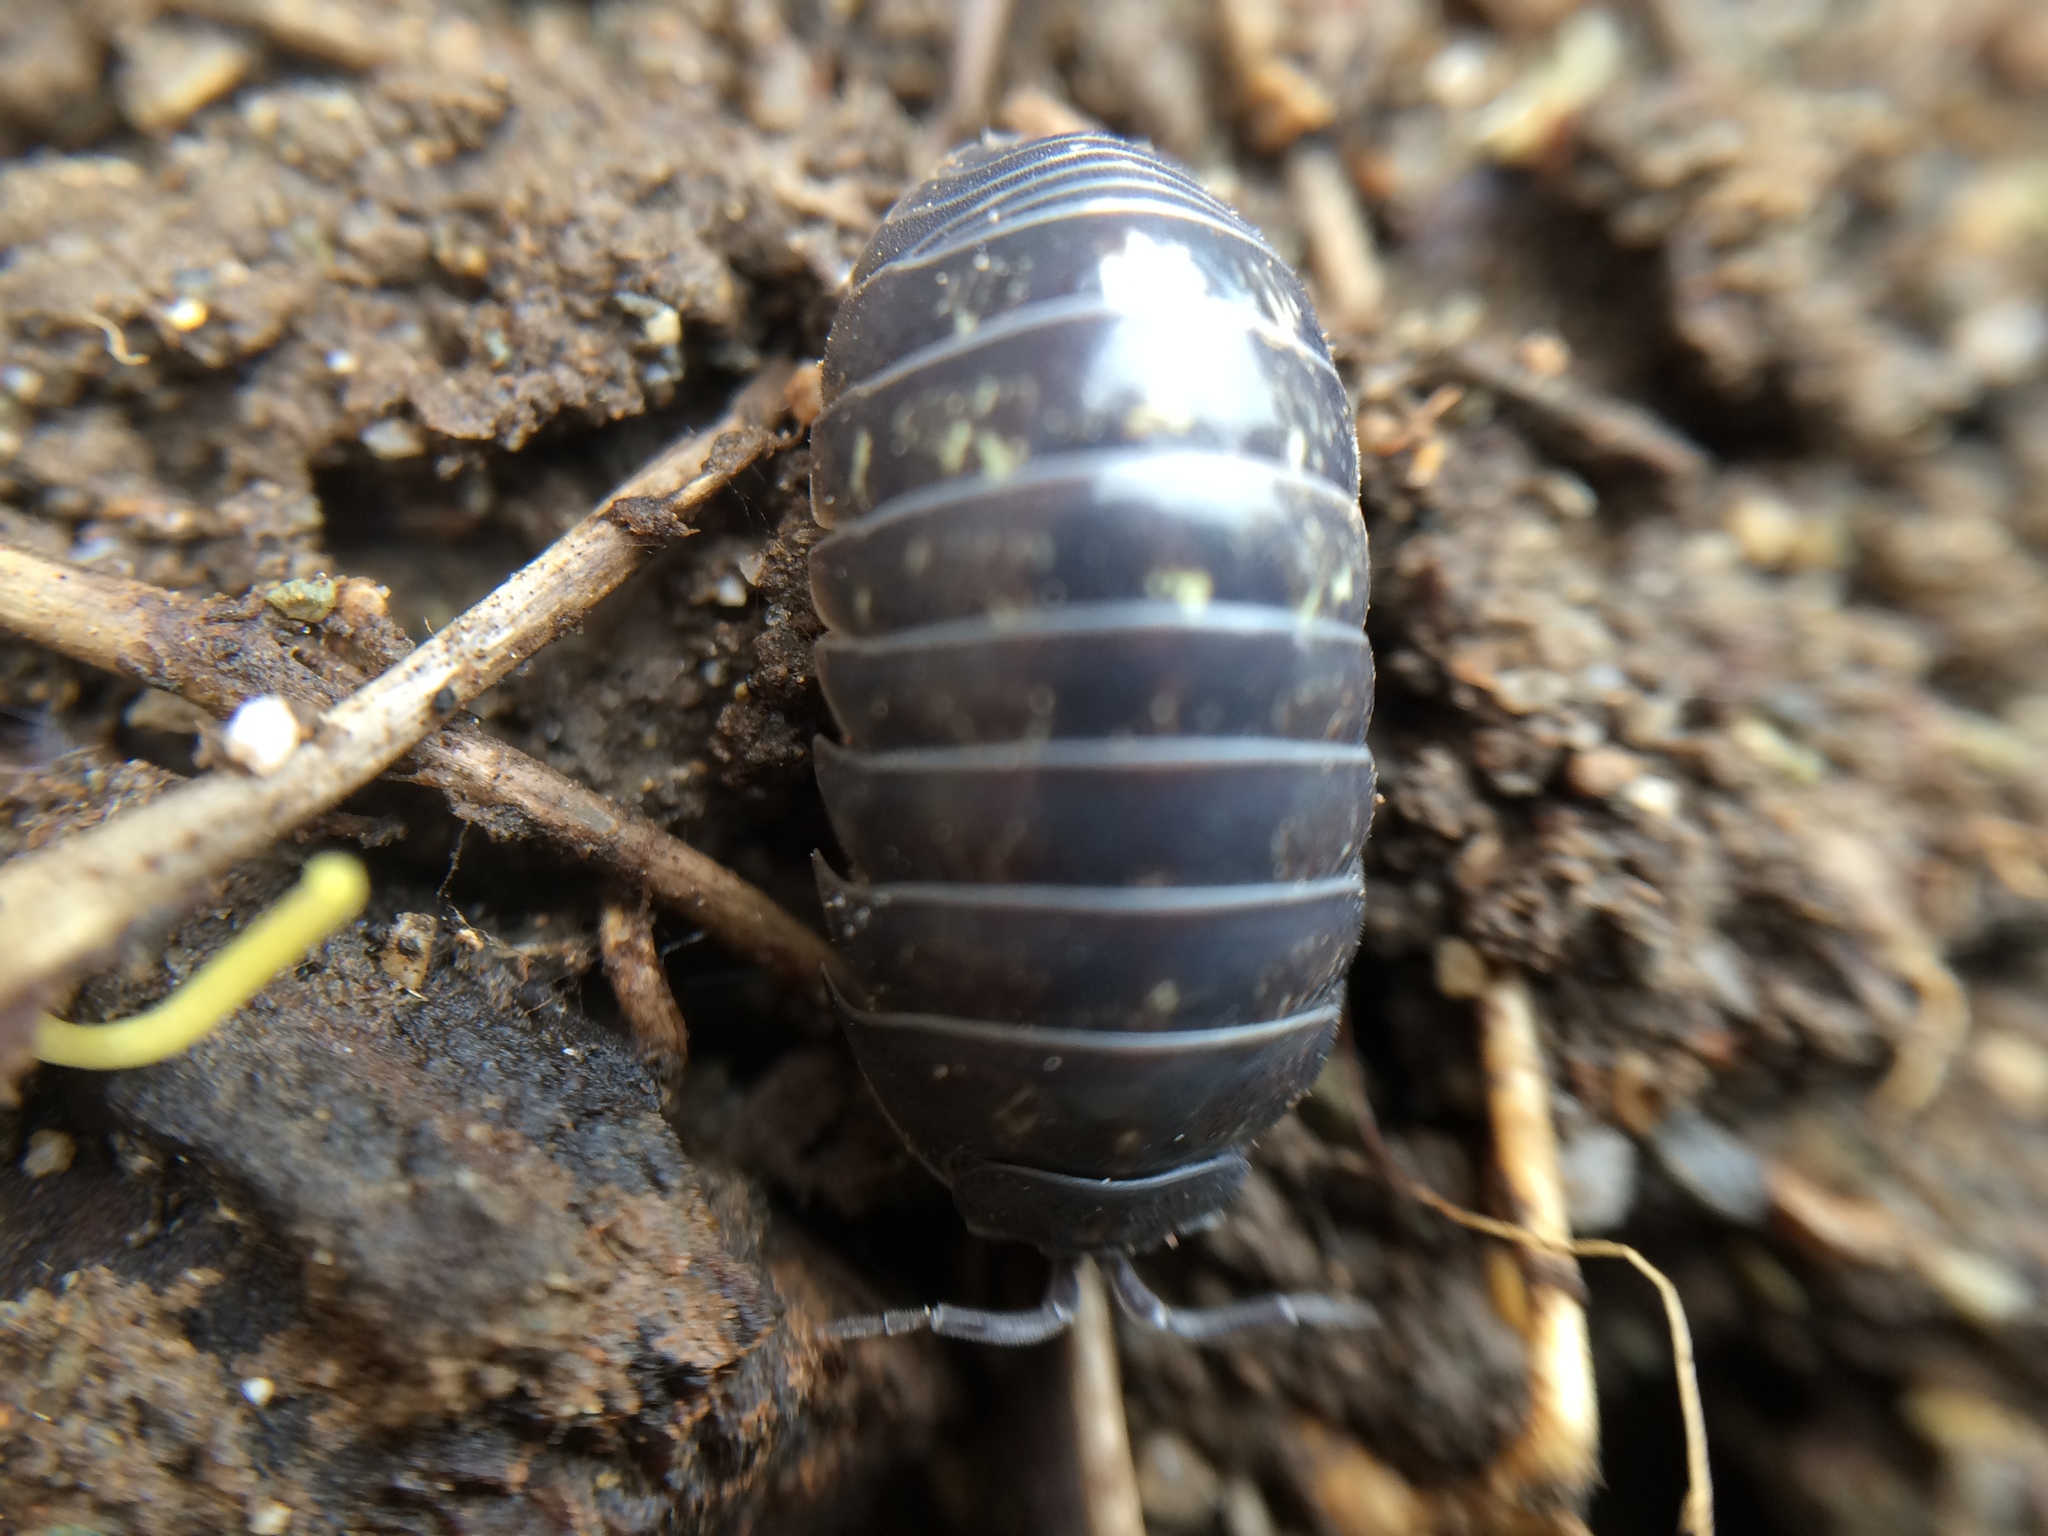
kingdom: Animalia
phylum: Arthropoda
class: Malacostraca
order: Isopoda
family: Armadillidiidae
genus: Armadillidium
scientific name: Armadillidium vulgare
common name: Common pill woodlouse
